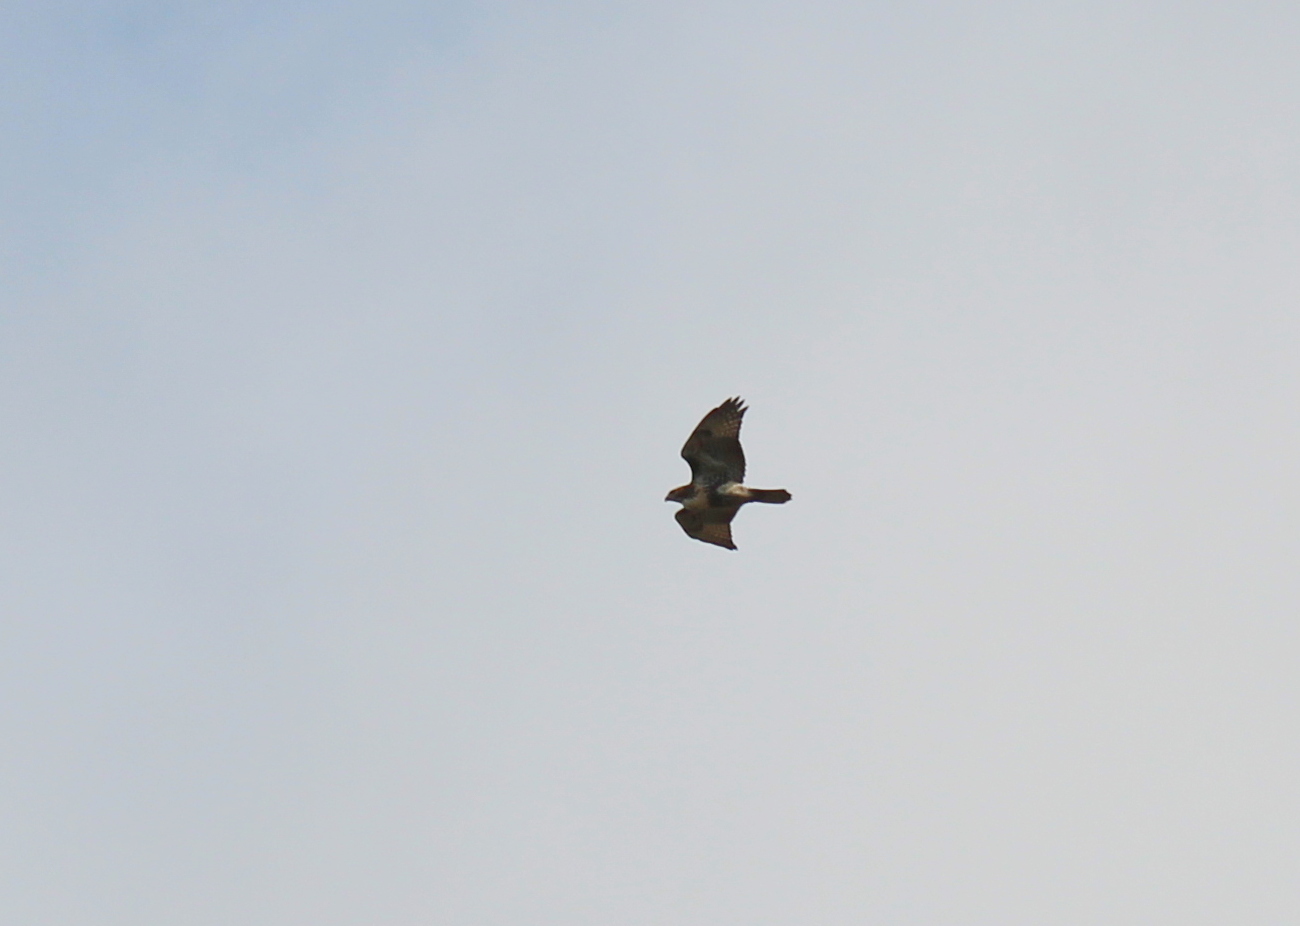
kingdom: Animalia
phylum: Chordata
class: Aves
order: Accipitriformes
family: Accipitridae
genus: Buteo
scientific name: Buteo jamaicensis
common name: Red-tailed hawk
